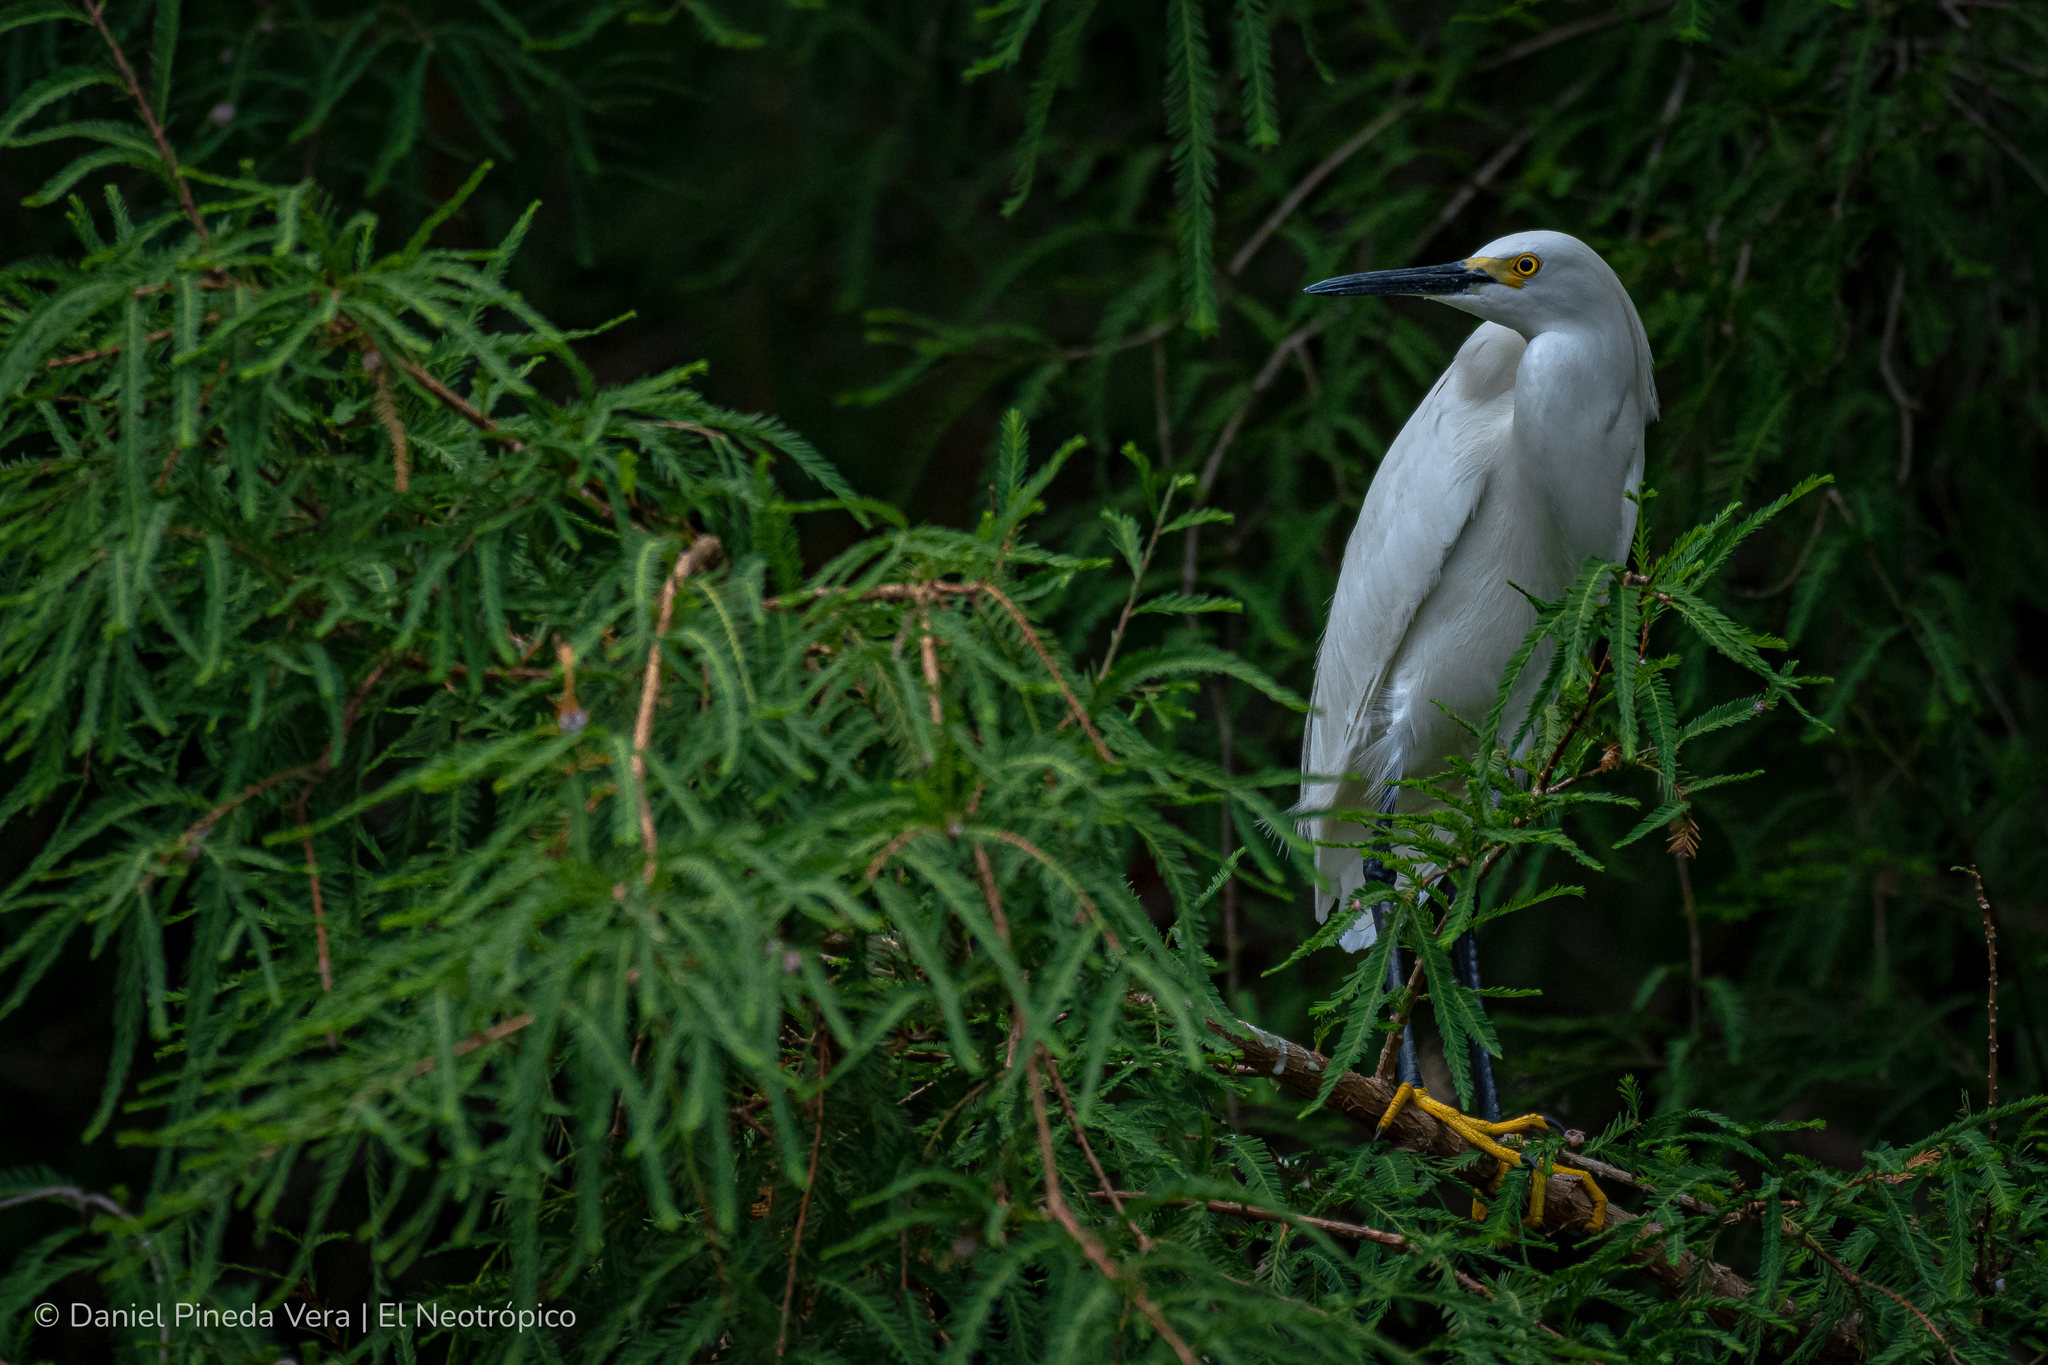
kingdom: Animalia
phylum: Chordata
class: Aves
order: Pelecaniformes
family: Ardeidae
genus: Egretta
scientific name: Egretta thula
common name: Snowy egret
